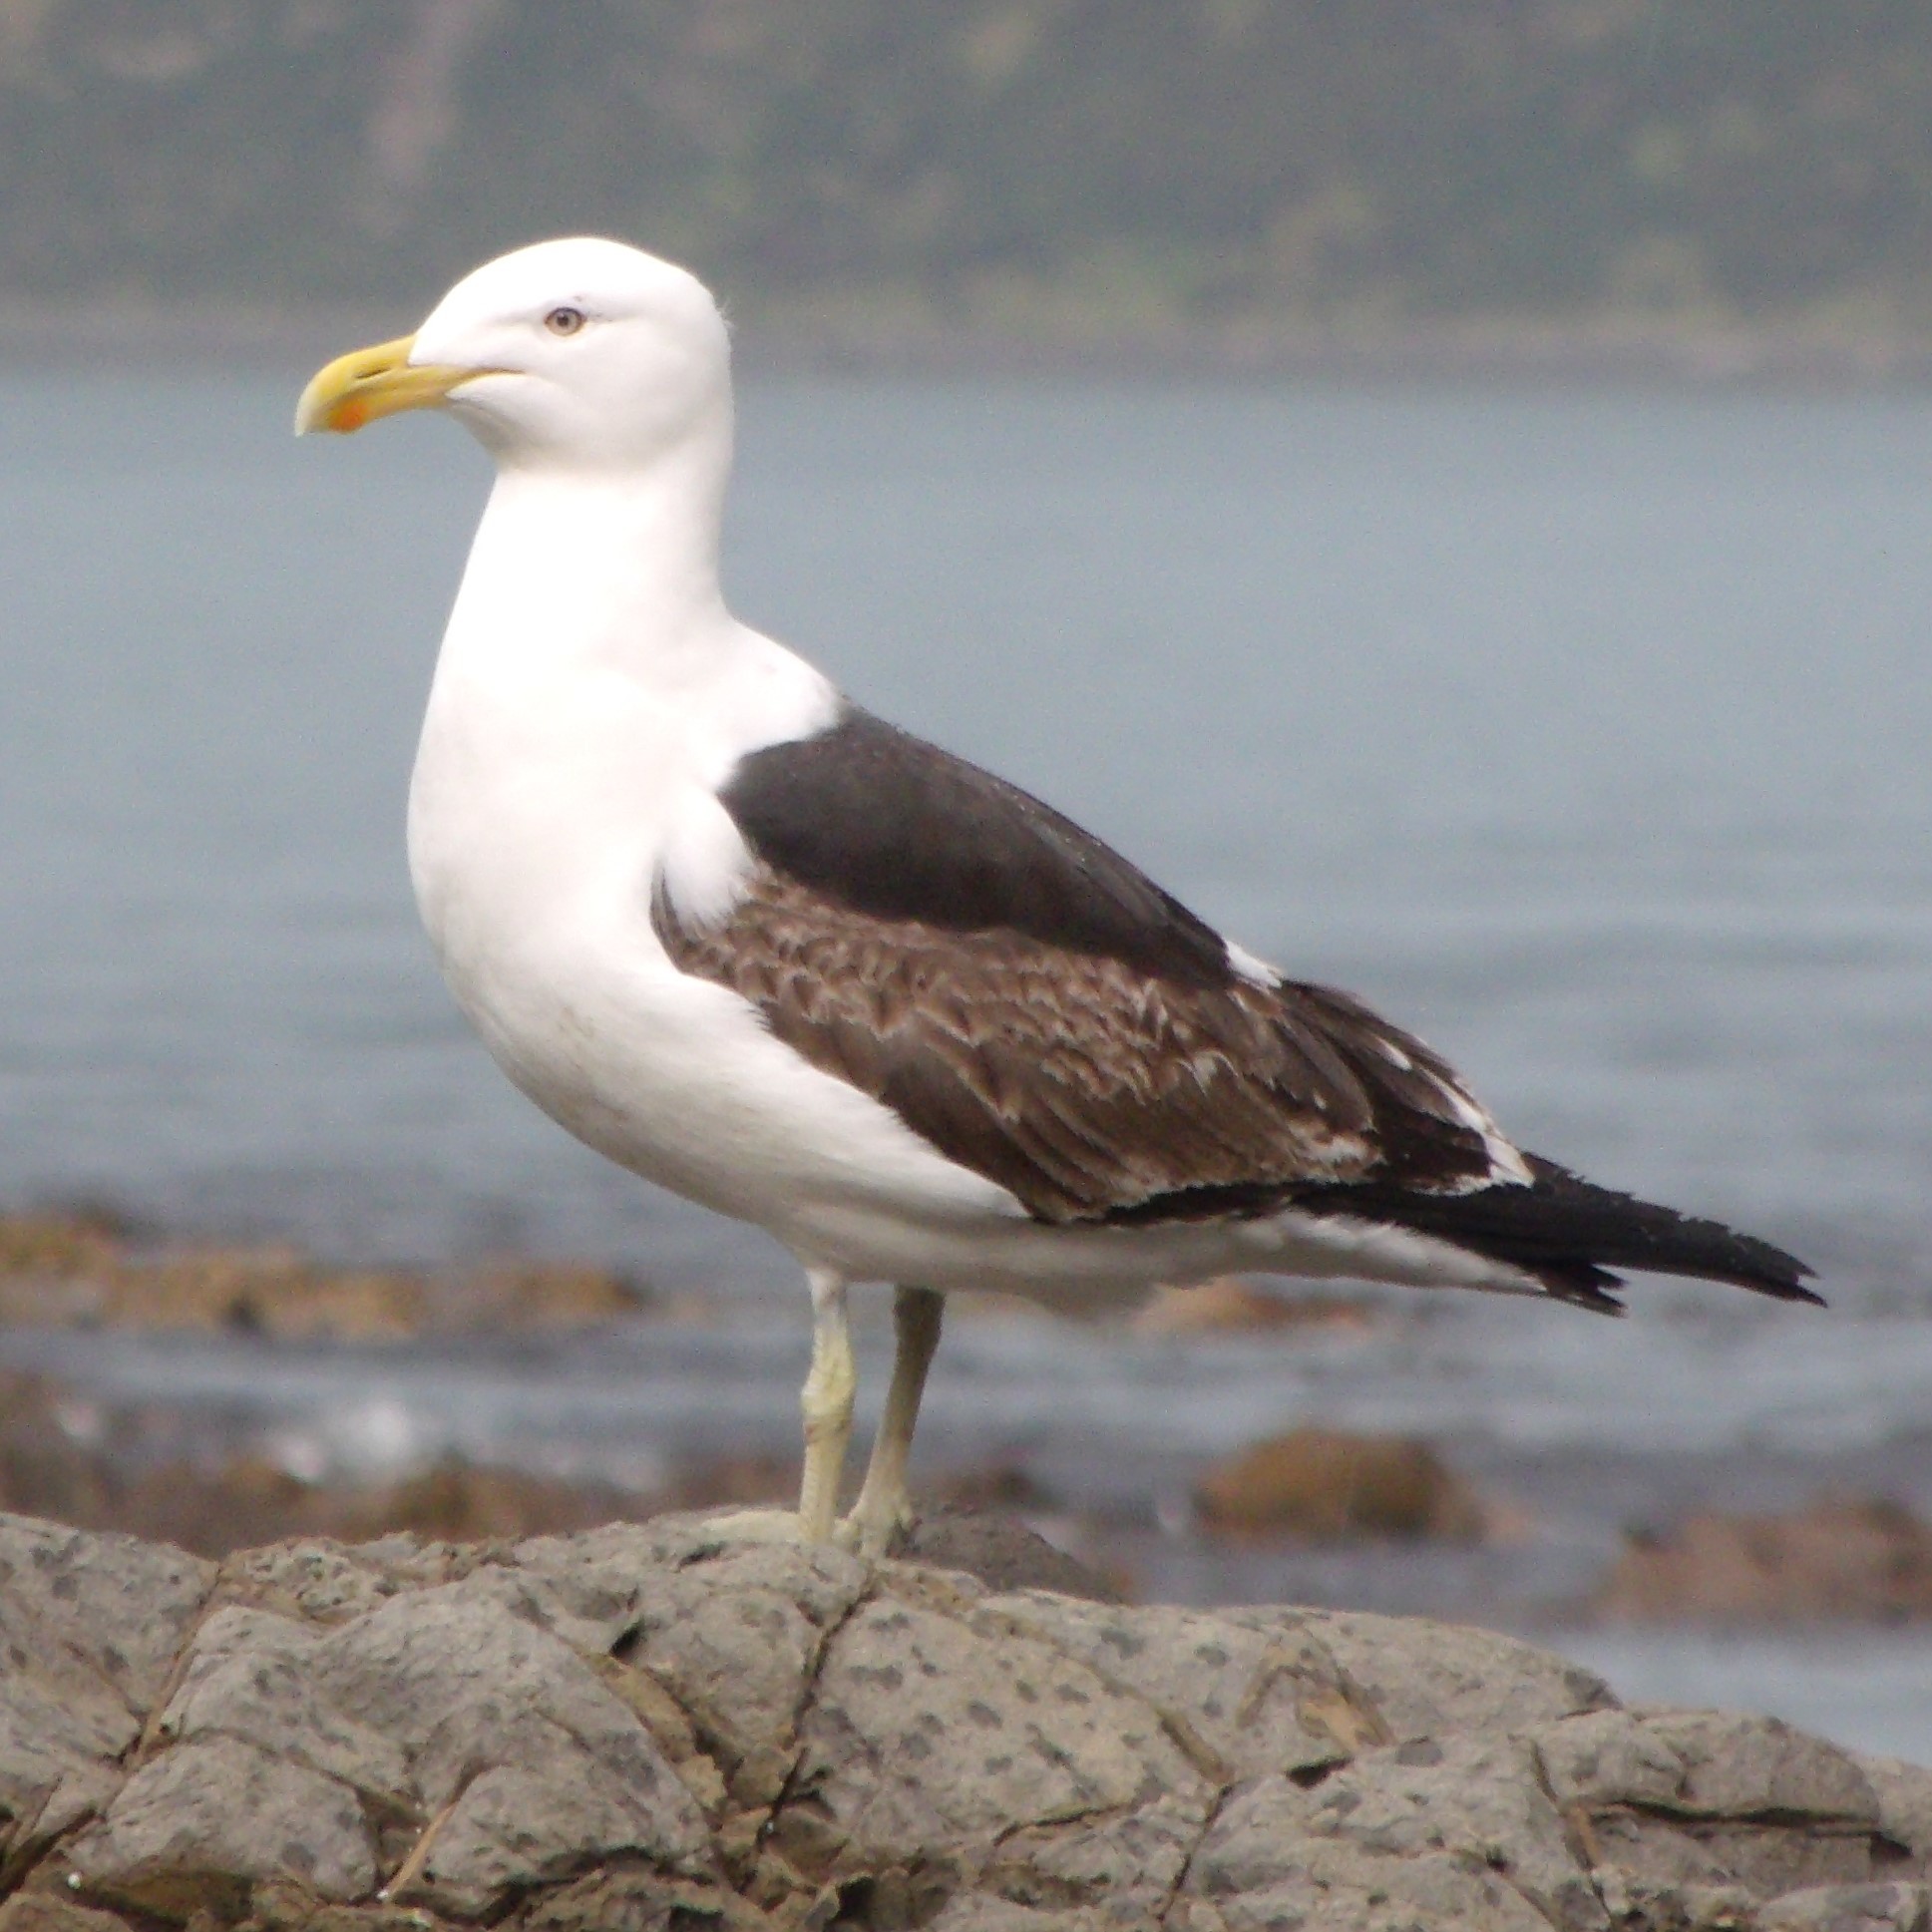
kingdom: Animalia
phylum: Chordata
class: Aves
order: Charadriiformes
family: Laridae
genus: Larus
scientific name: Larus dominicanus
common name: Kelp gull
